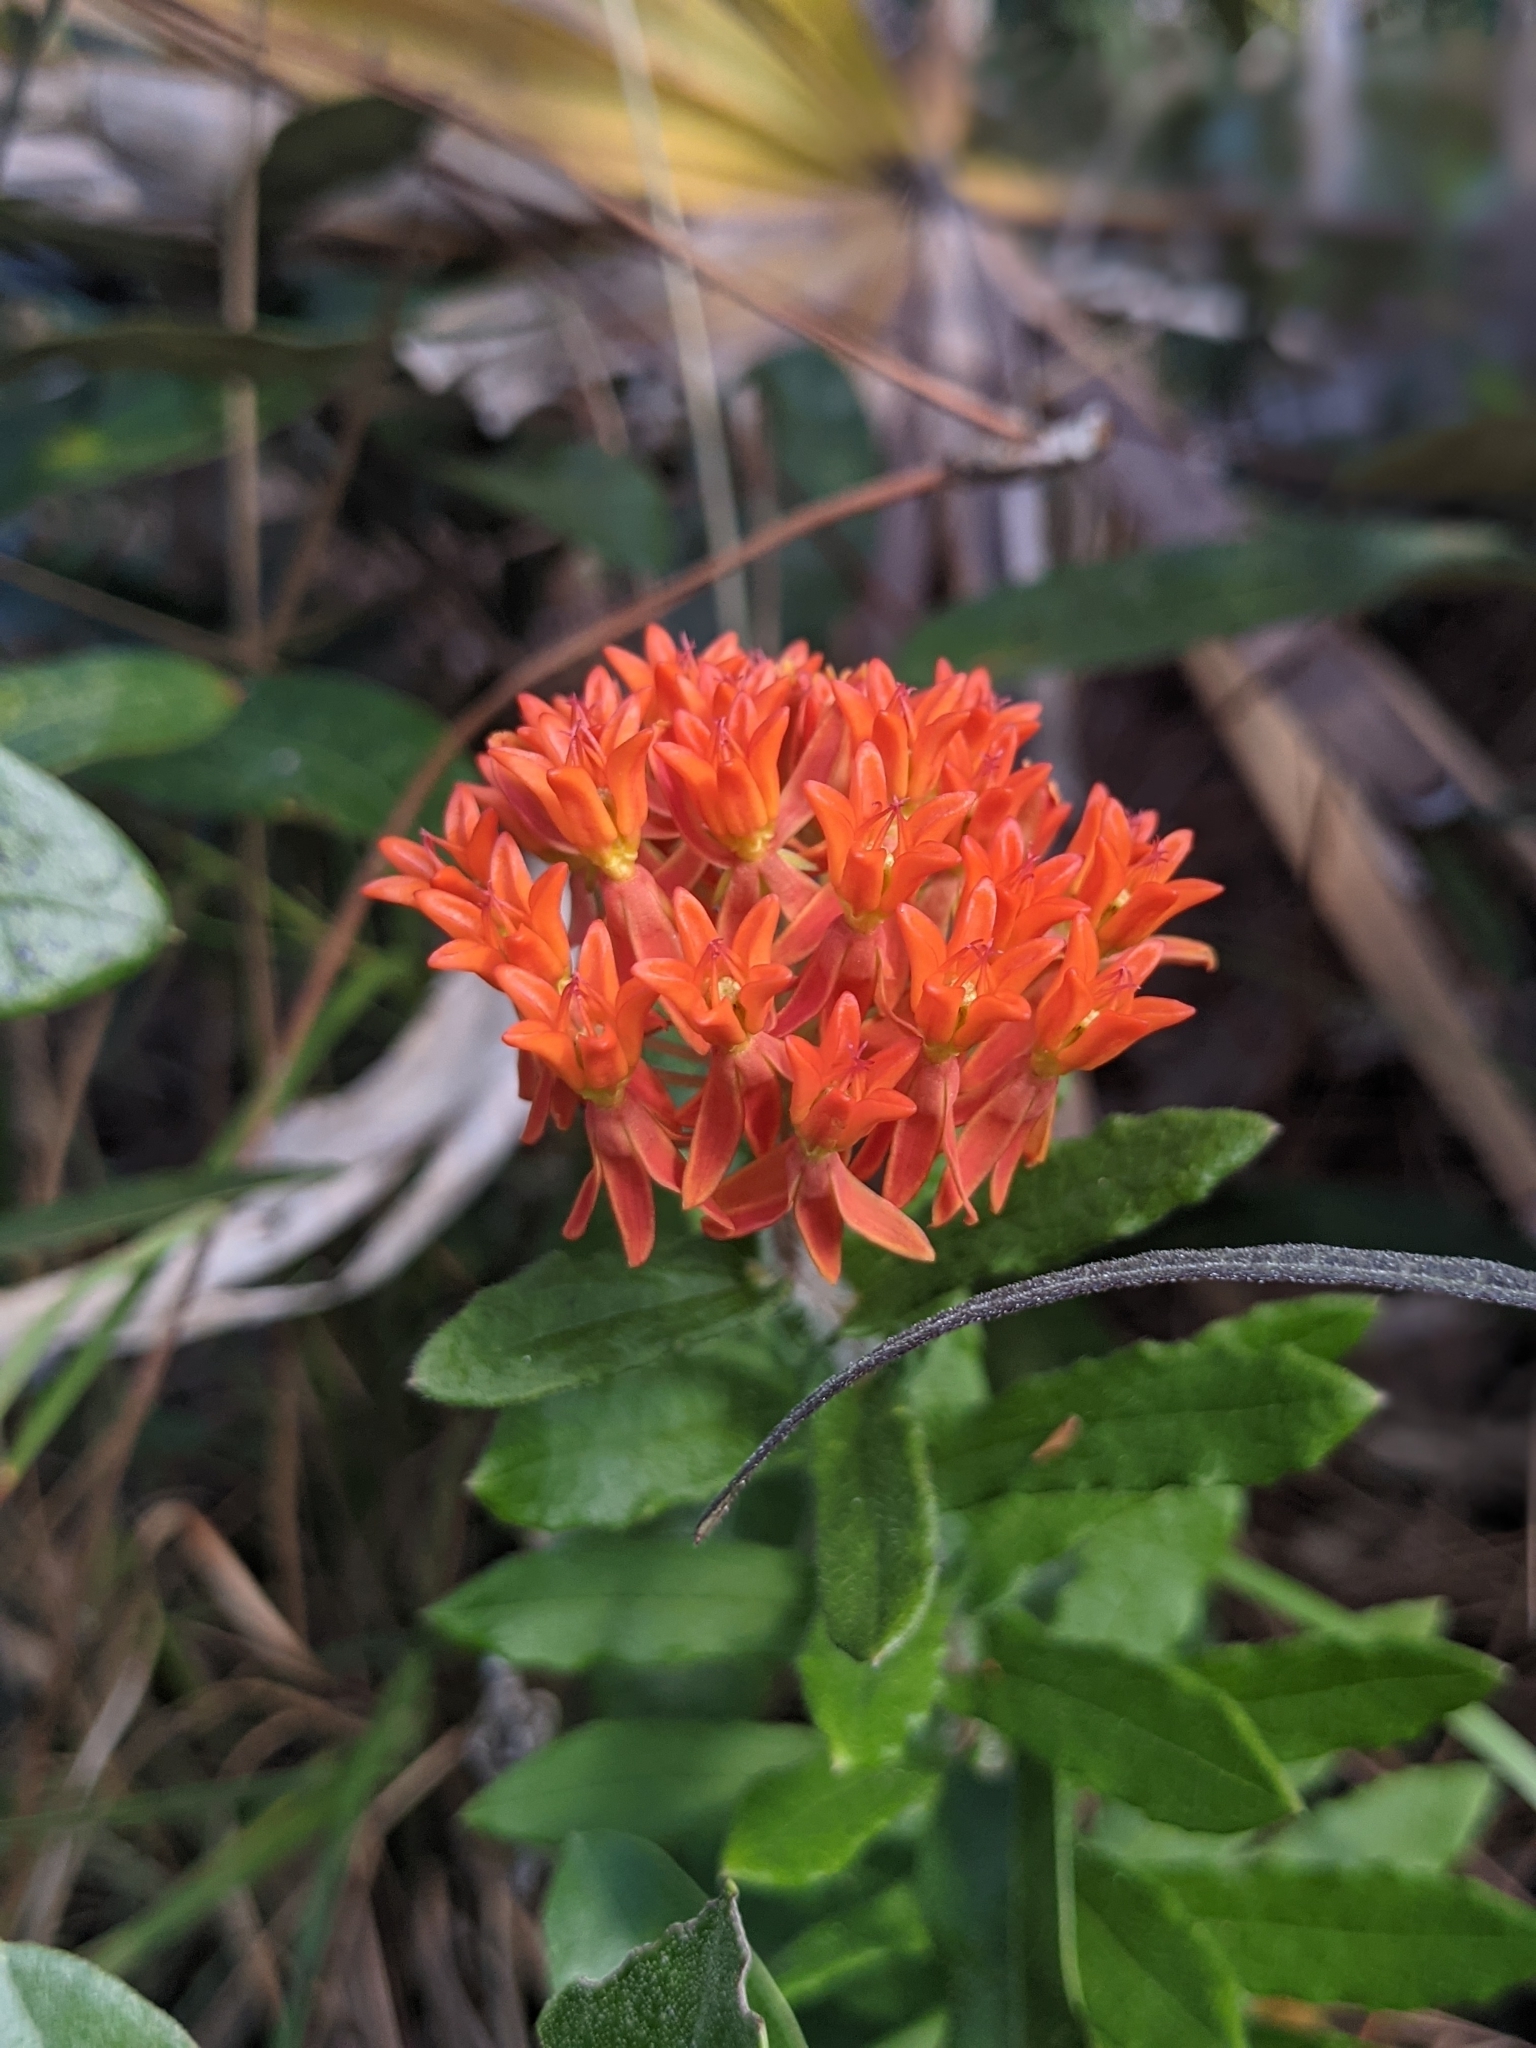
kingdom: Plantae
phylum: Tracheophyta
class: Magnoliopsida
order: Gentianales
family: Apocynaceae
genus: Asclepias
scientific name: Asclepias tuberosa
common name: Butterfly milkweed
